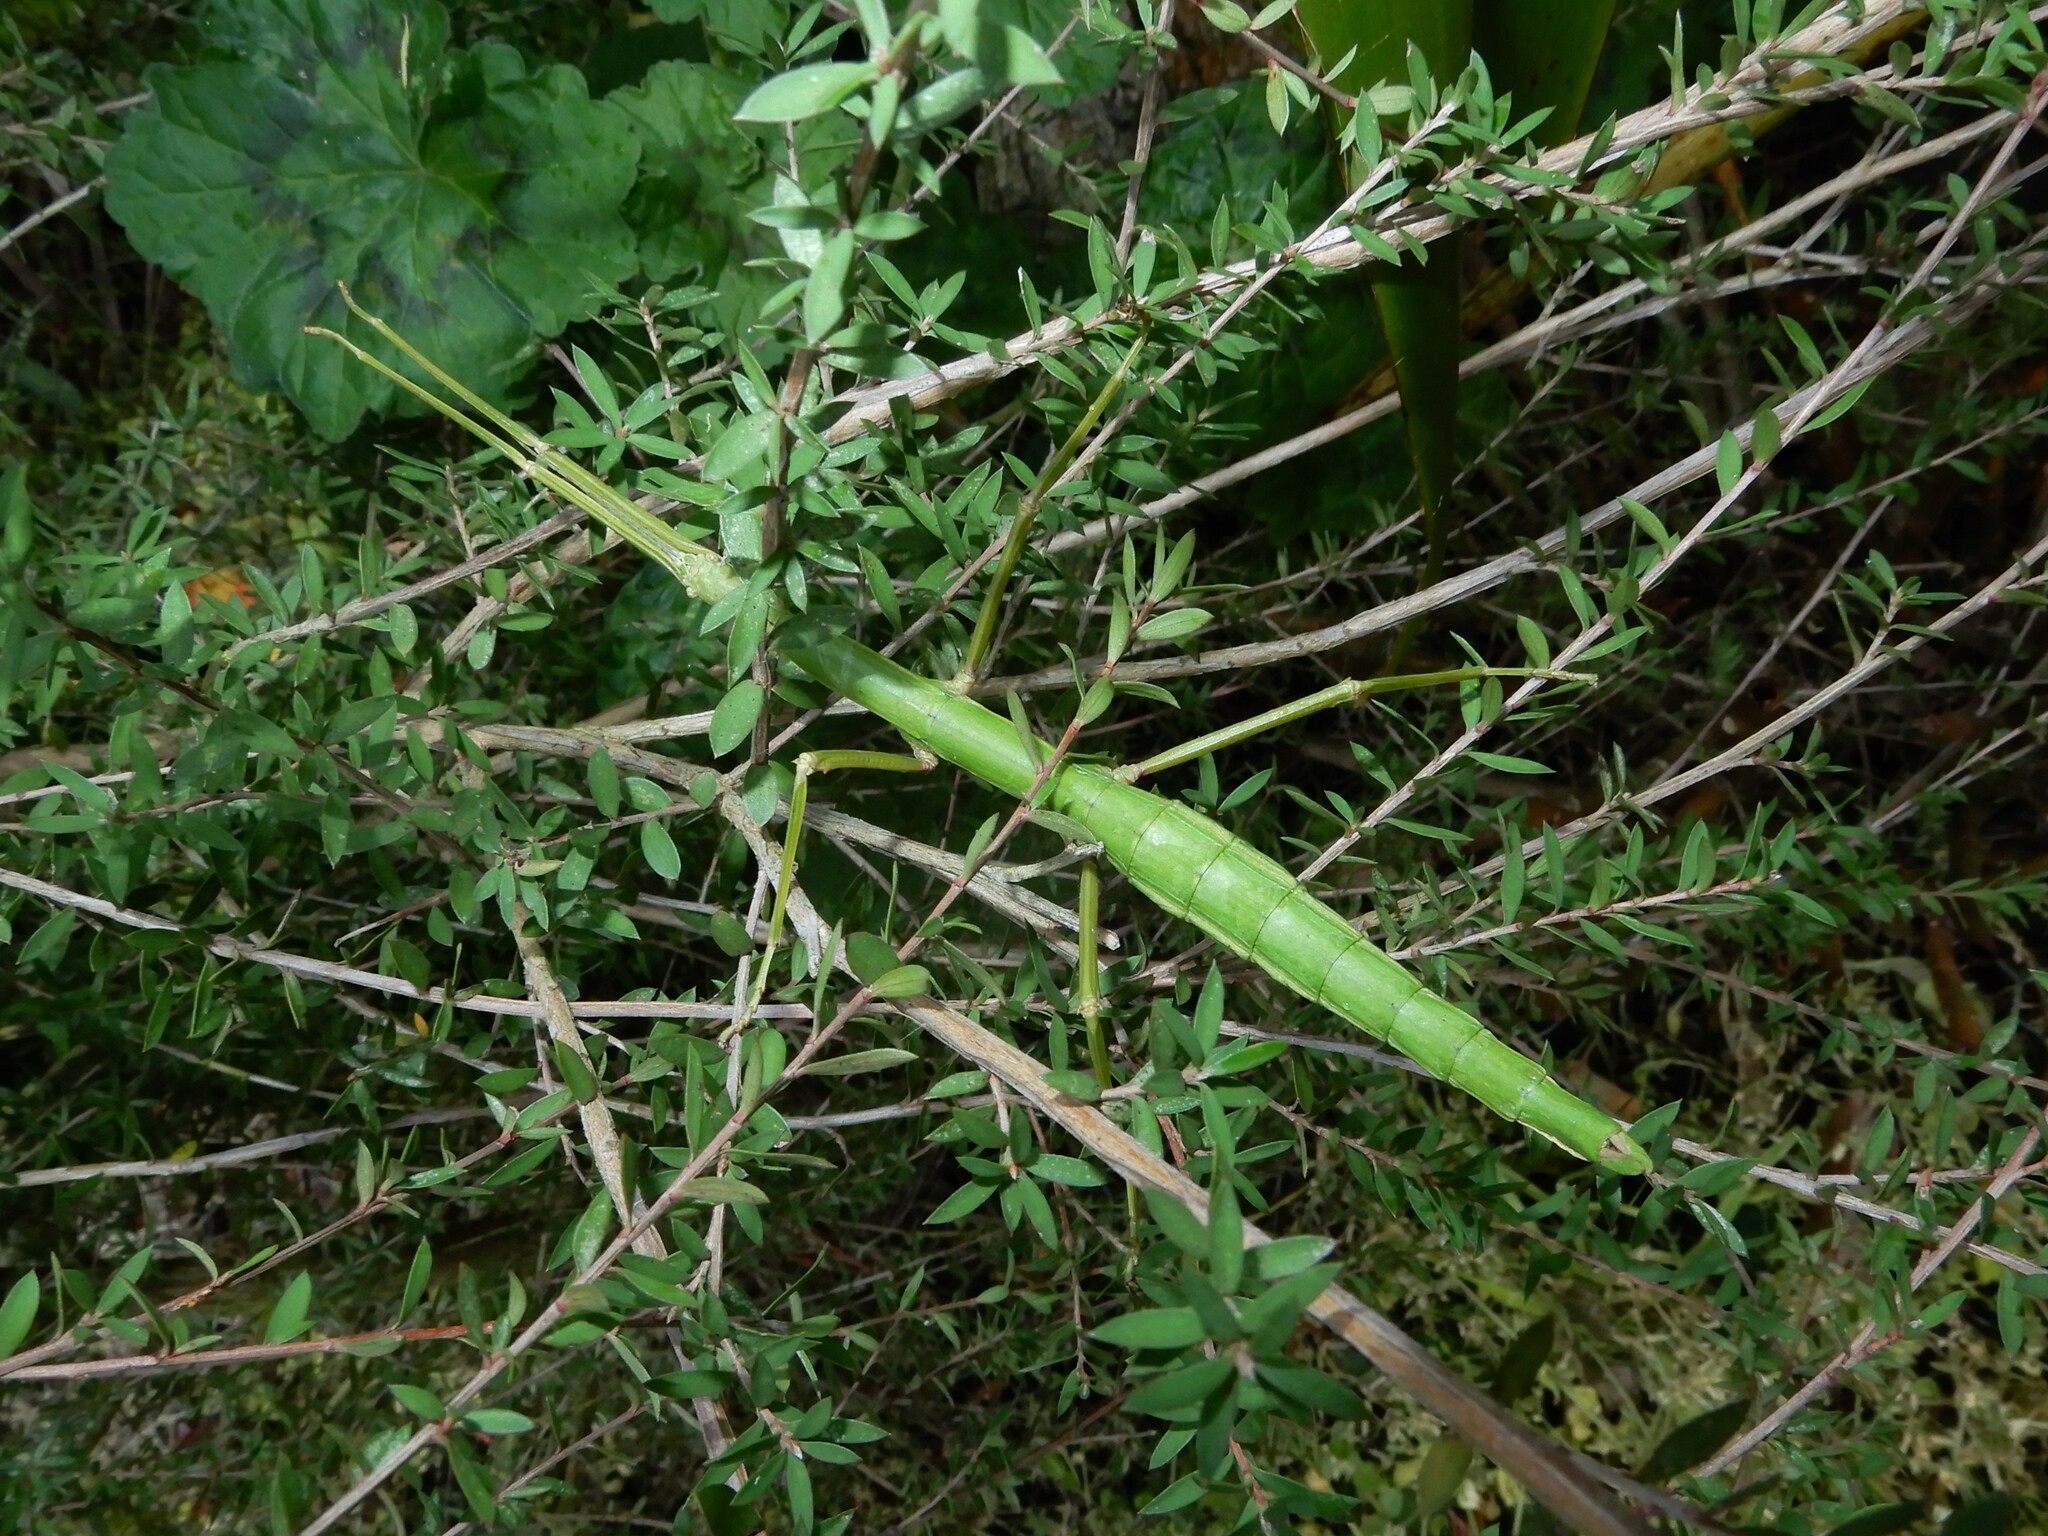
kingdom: Animalia
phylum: Arthropoda
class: Insecta
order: Phasmida
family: Phasmatidae
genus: Acanthoxyla
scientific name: Acanthoxyla inermis
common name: Unarmed stick insect
